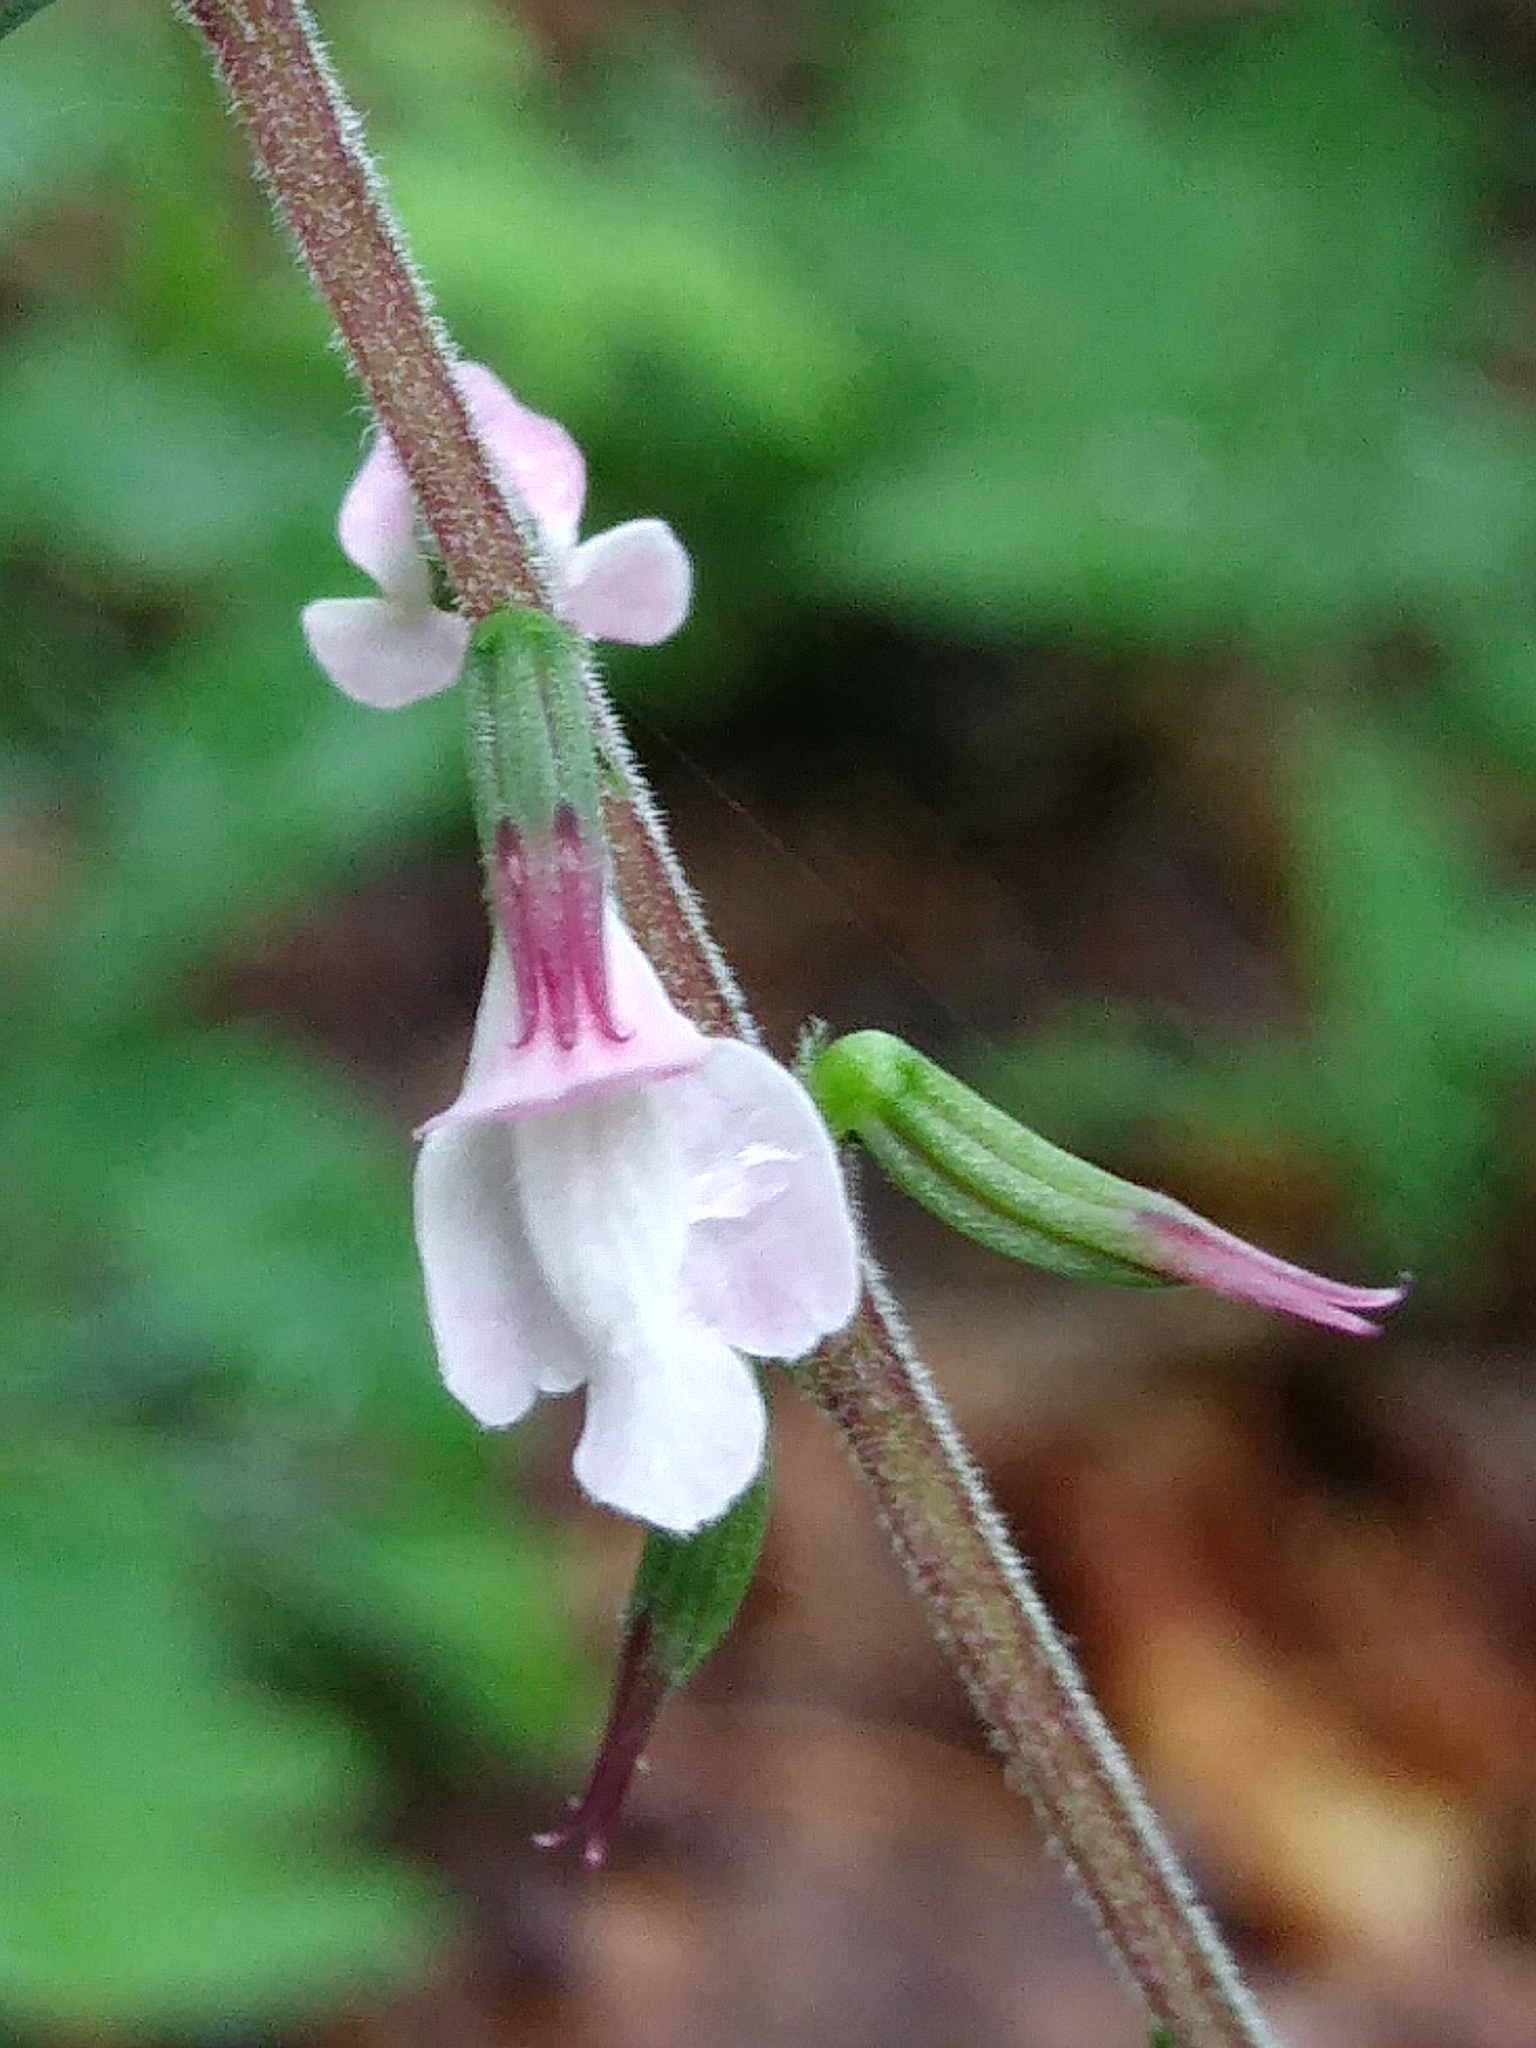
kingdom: Plantae
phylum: Tracheophyta
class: Magnoliopsida
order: Lamiales
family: Phrymaceae
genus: Phryma
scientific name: Phryma leptostachya
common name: American lopseed
